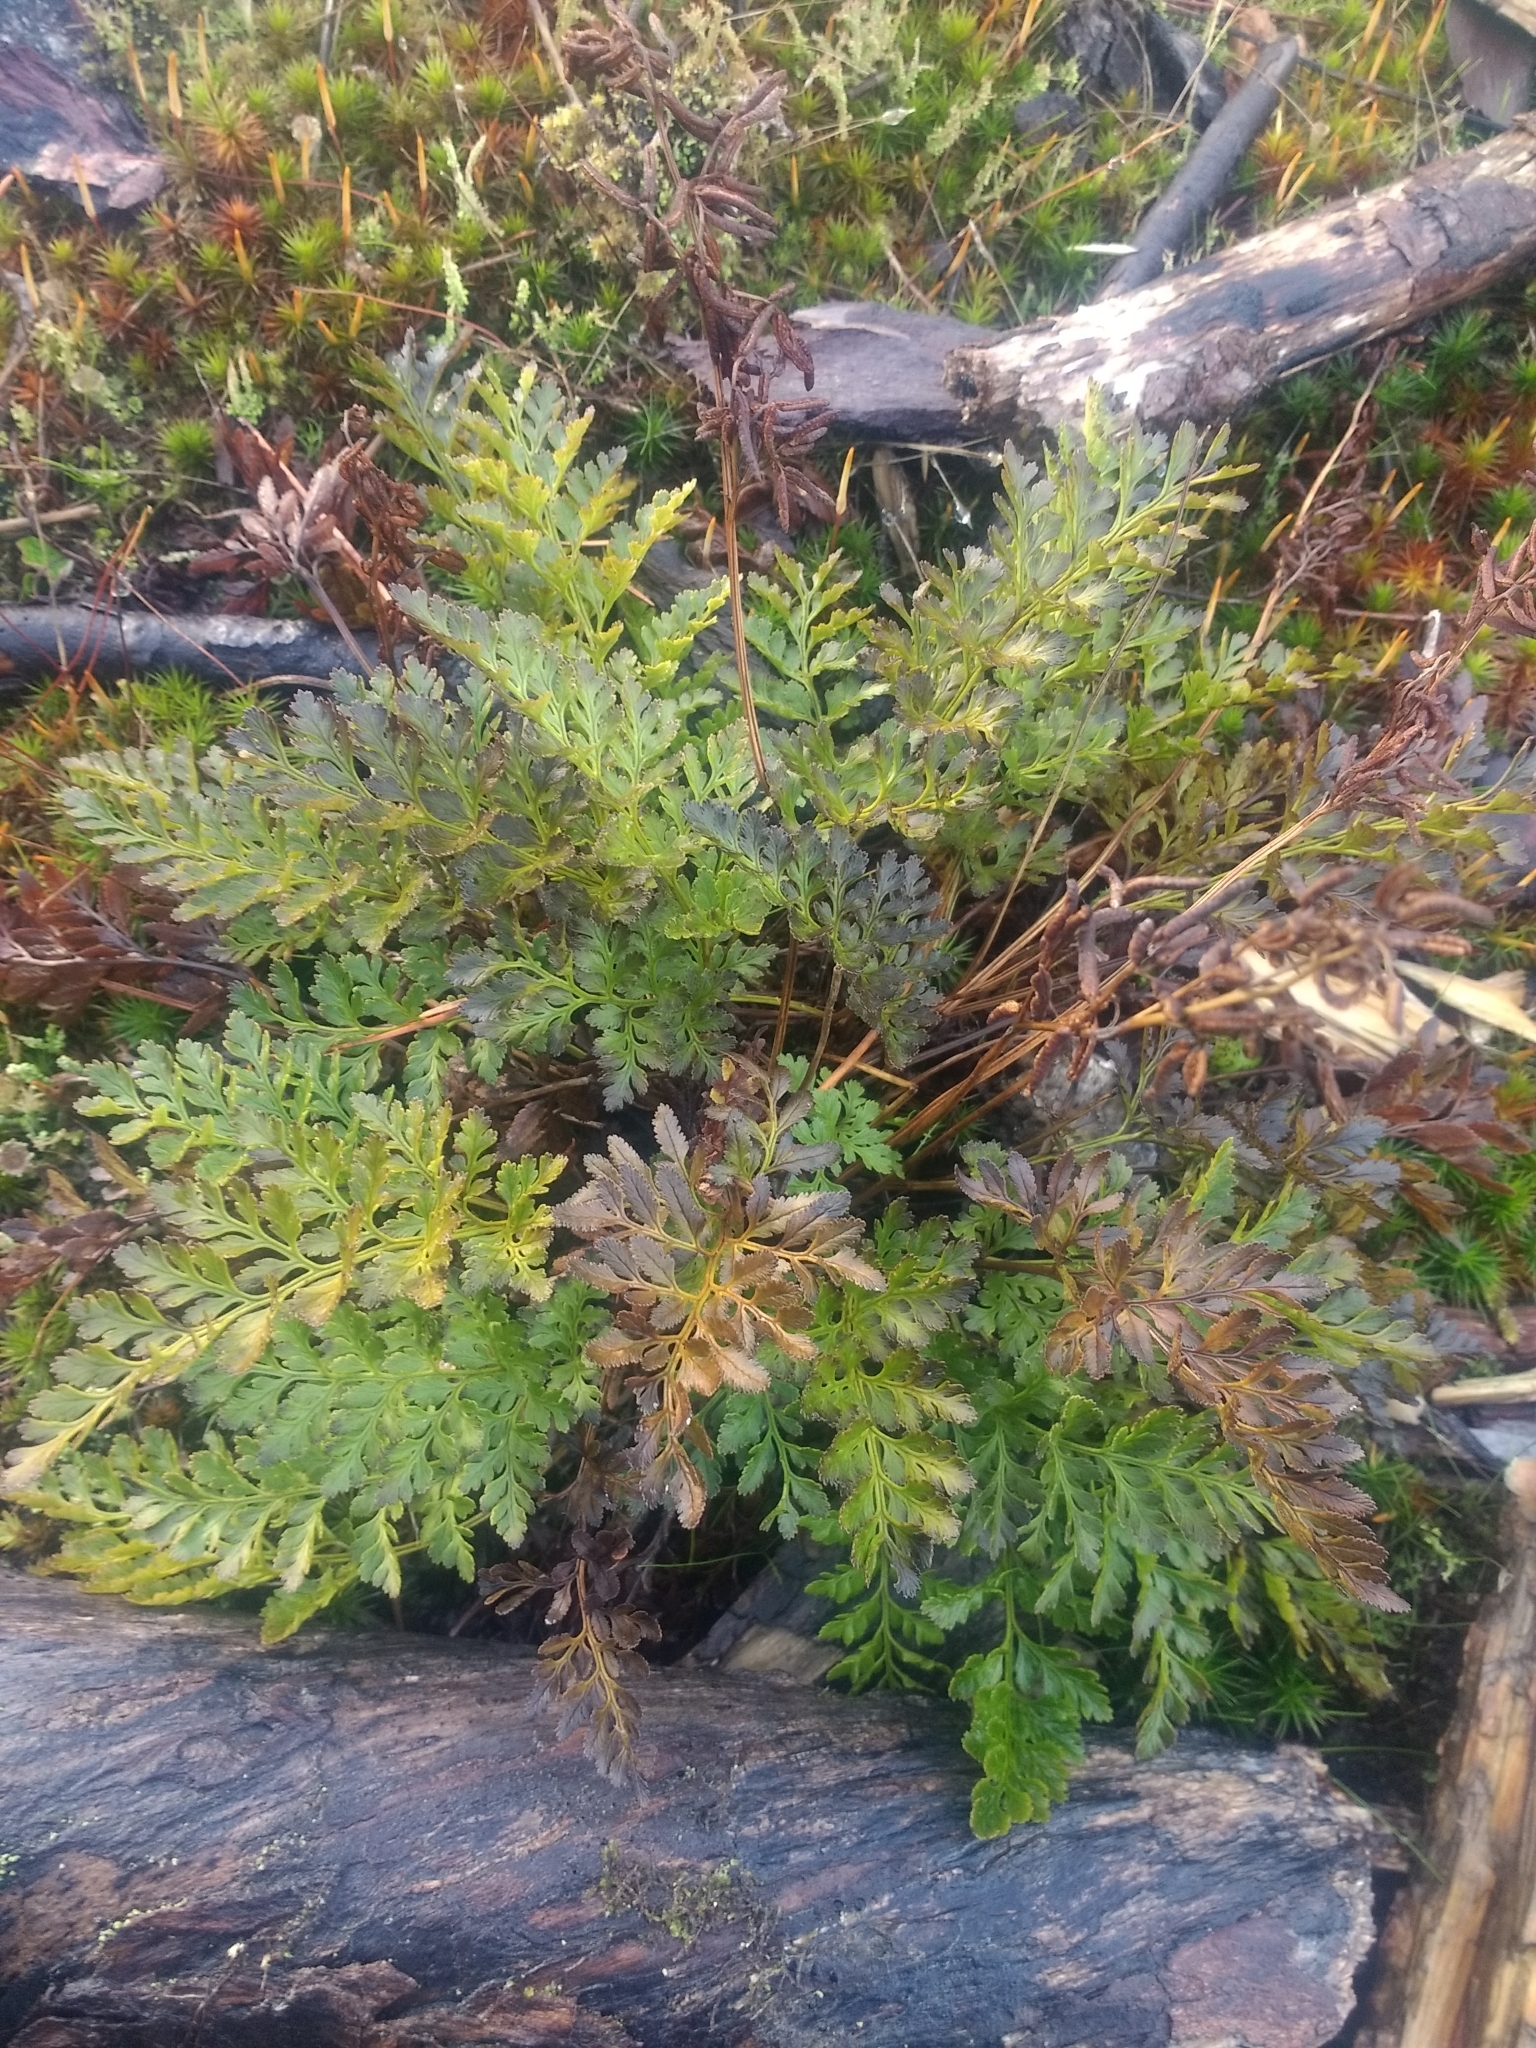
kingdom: Plantae
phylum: Tracheophyta
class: Polypodiopsida
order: Polypodiales
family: Pteridaceae
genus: Cryptogramma
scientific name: Cryptogramma acrostichoides
